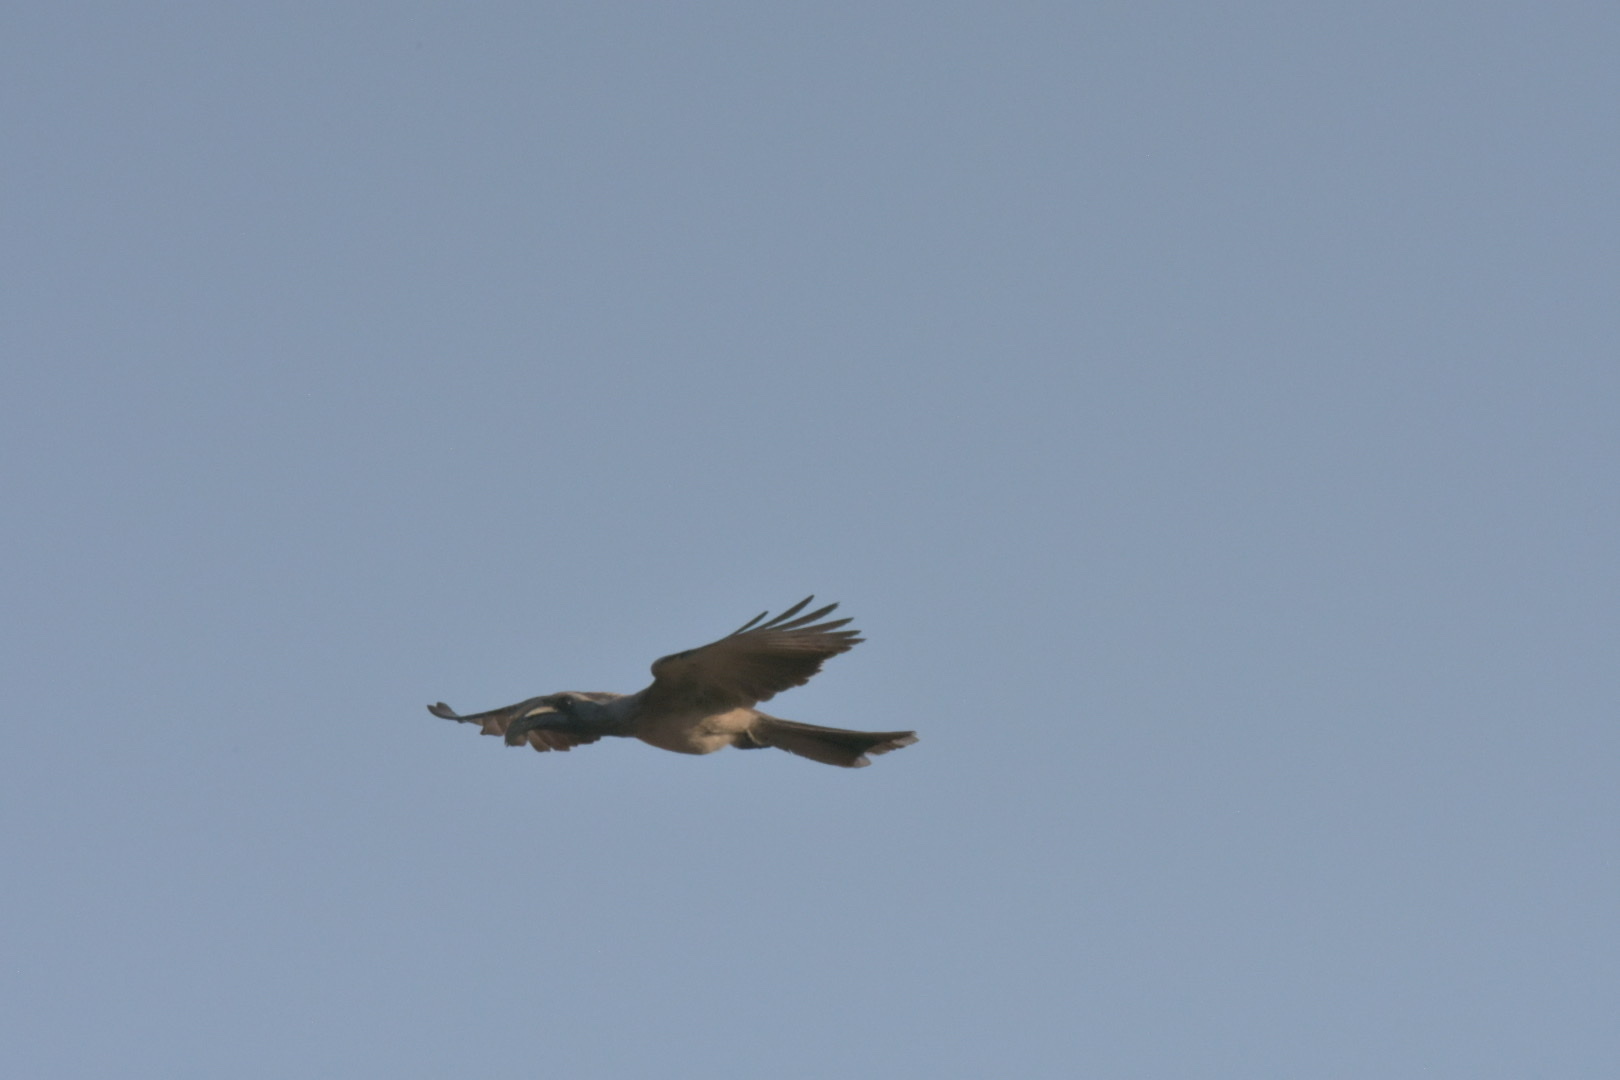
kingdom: Animalia
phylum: Chordata
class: Aves
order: Bucerotiformes
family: Bucerotidae
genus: Lophoceros
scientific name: Lophoceros nasutus
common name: African grey hornbill
